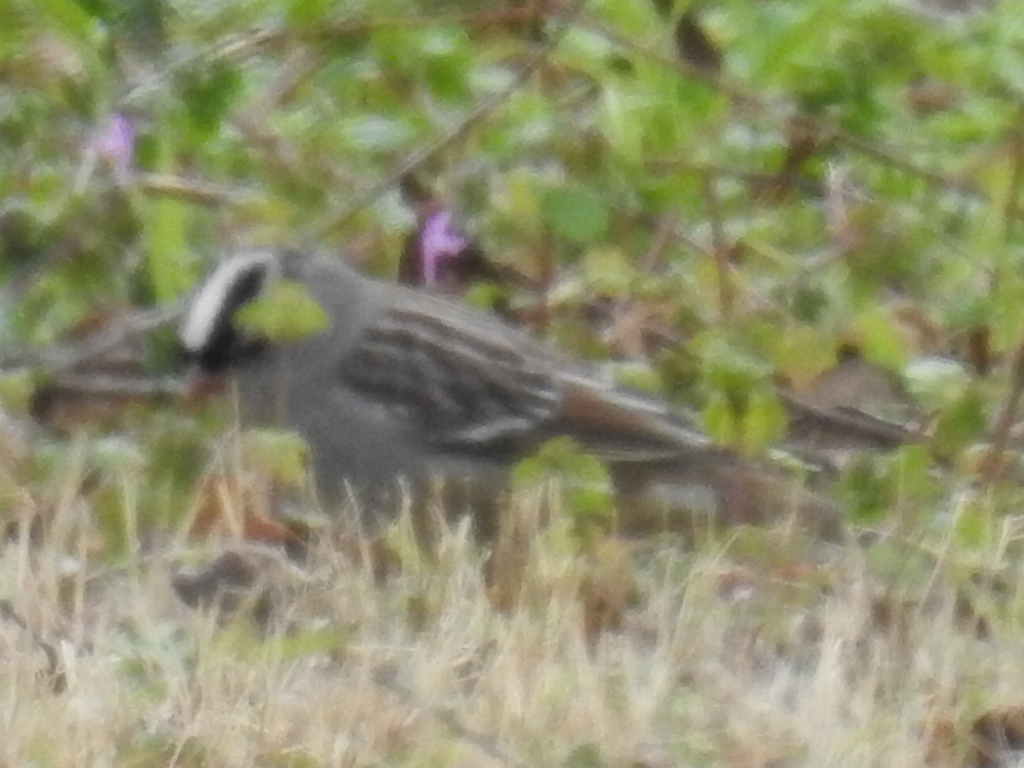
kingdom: Animalia
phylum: Chordata
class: Aves
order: Passeriformes
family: Passerellidae
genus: Zonotrichia
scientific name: Zonotrichia leucophrys
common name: White-crowned sparrow
